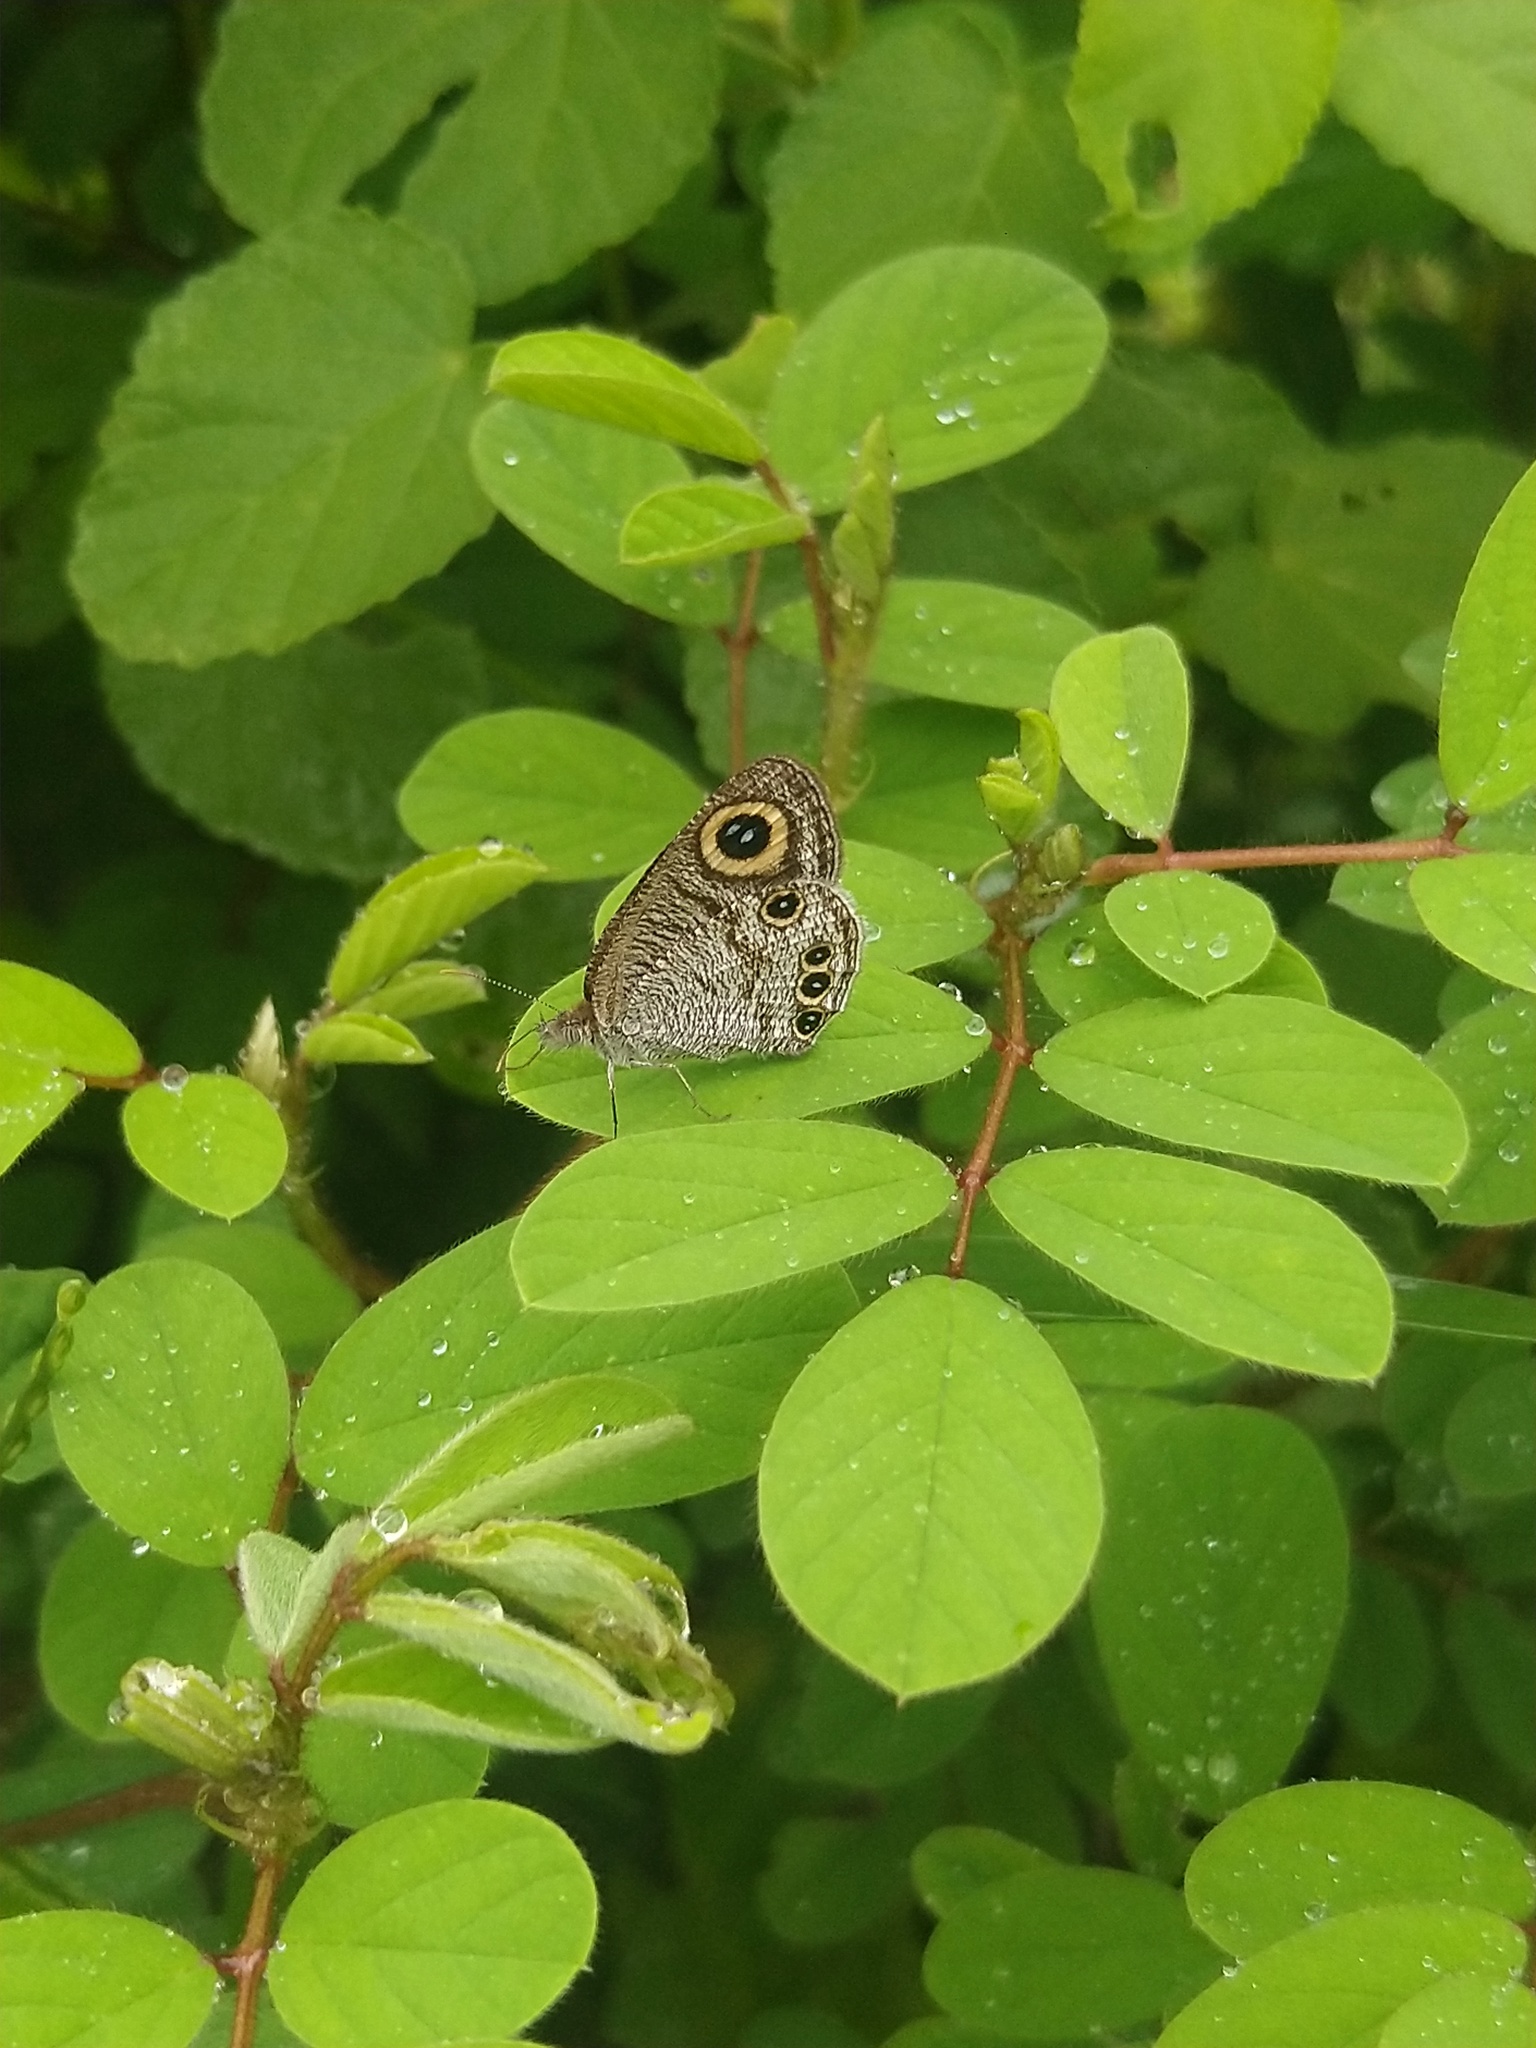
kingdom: Animalia
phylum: Arthropoda
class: Insecta
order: Lepidoptera
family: Nymphalidae
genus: Ypthima
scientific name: Ypthima huebneri
